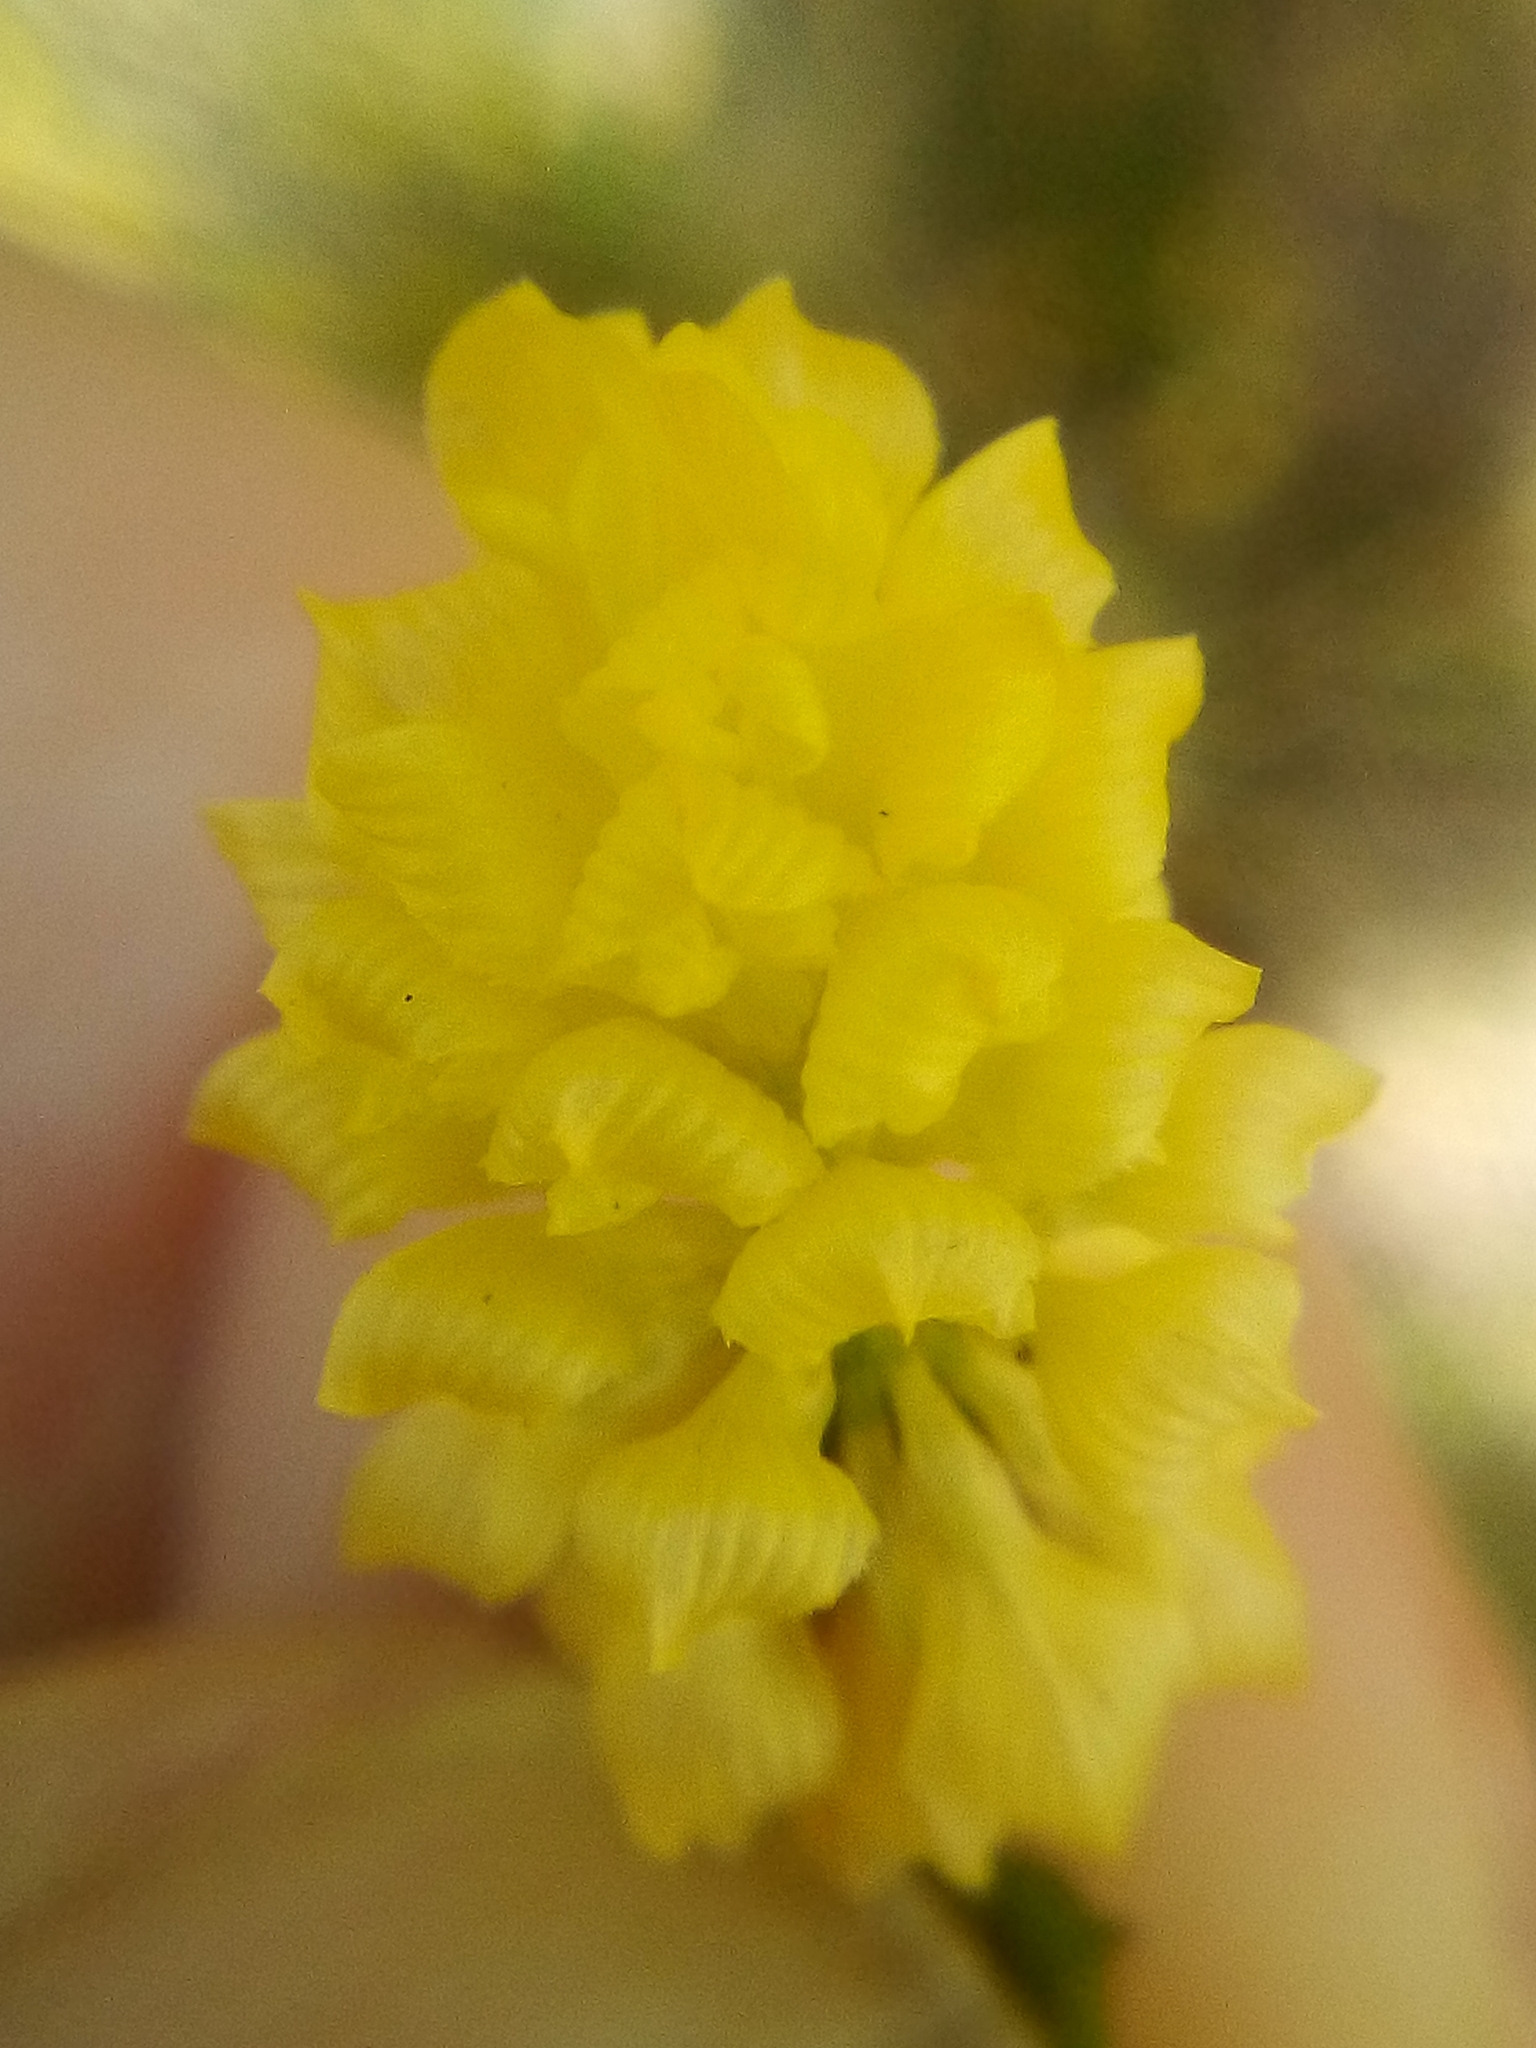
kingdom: Plantae
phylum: Tracheophyta
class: Magnoliopsida
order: Fabales
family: Fabaceae
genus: Trifolium
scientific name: Trifolium campestre
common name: Field clover
